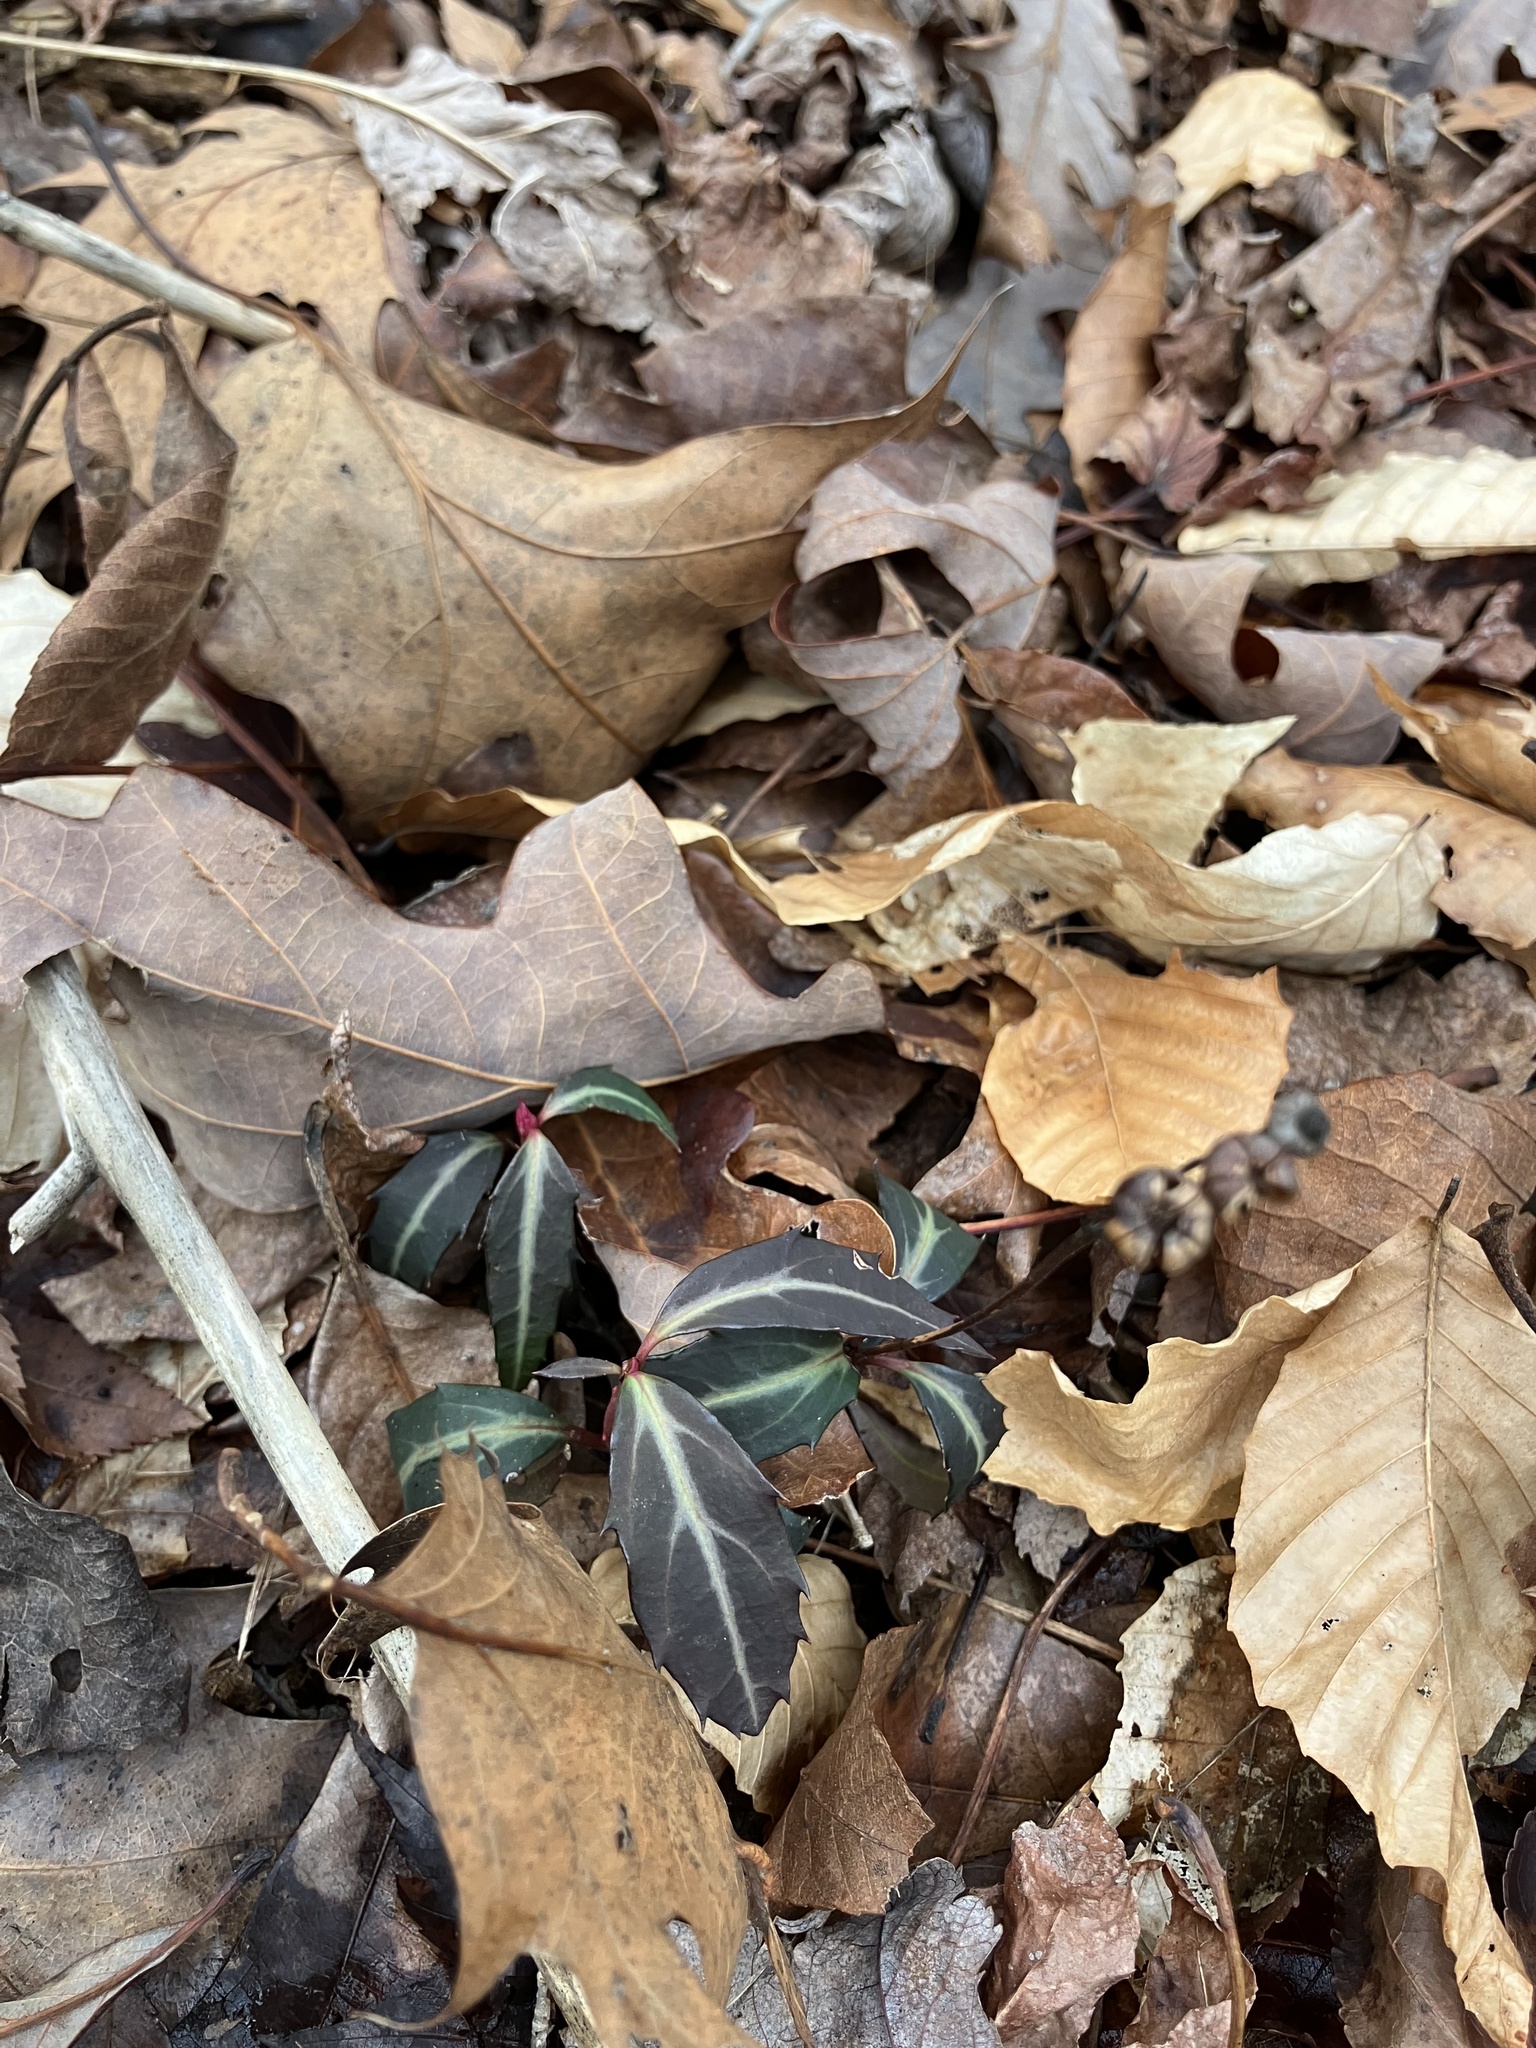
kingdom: Plantae
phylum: Tracheophyta
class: Magnoliopsida
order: Ericales
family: Ericaceae
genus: Chimaphila
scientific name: Chimaphila maculata
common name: Spotted pipsissewa
